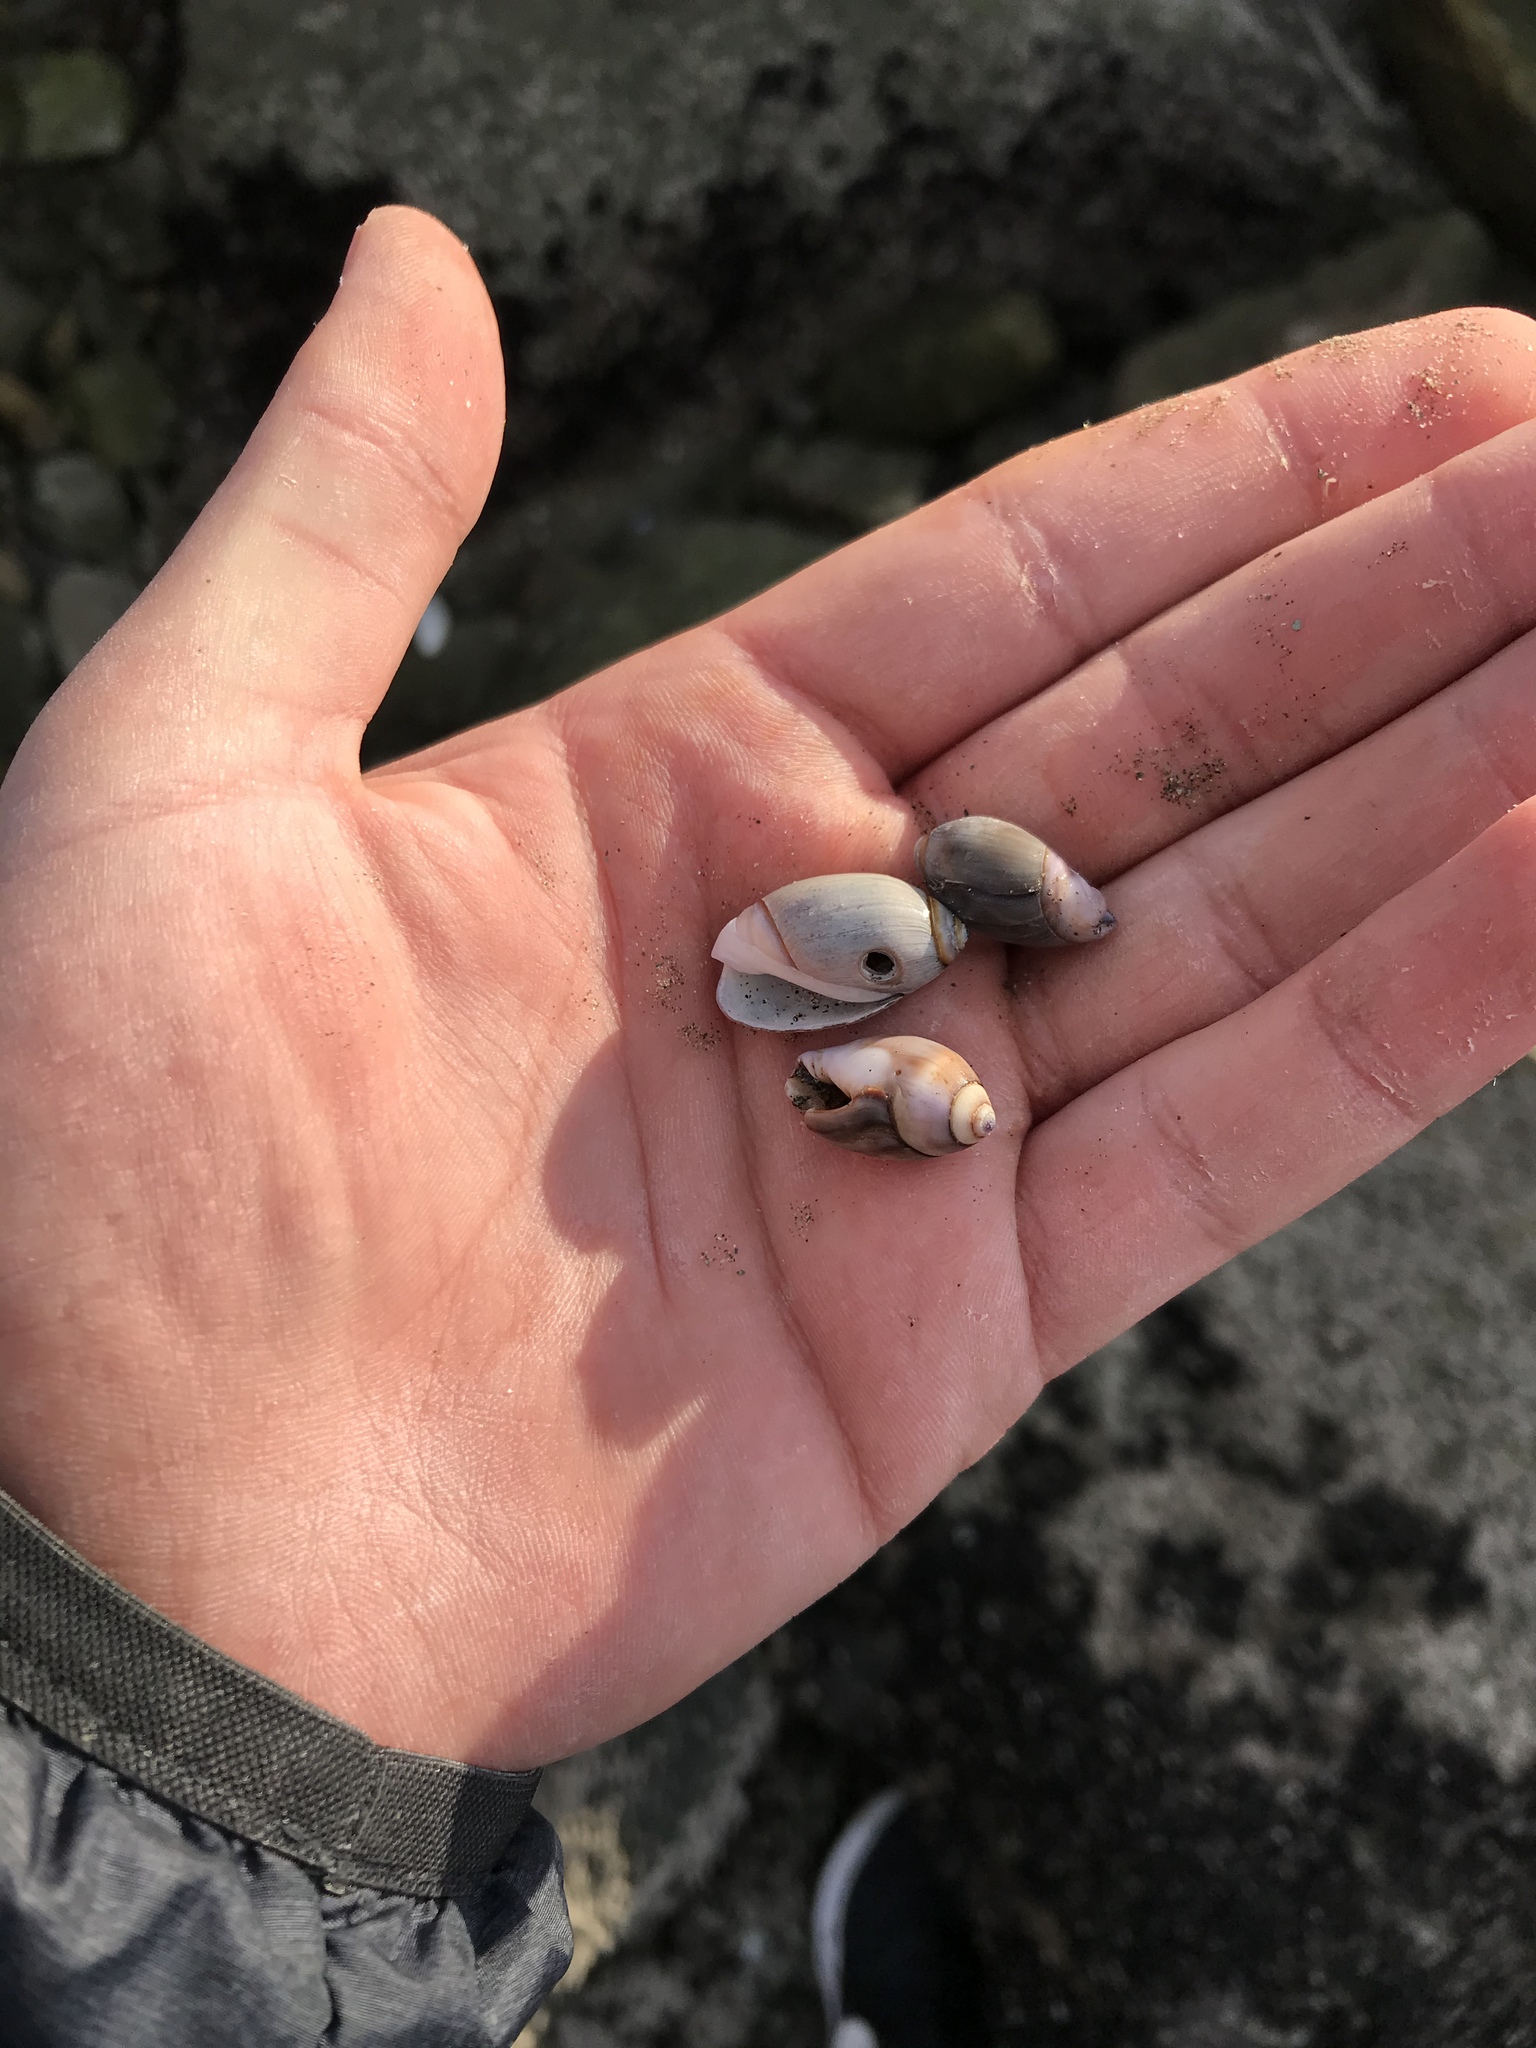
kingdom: Animalia
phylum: Mollusca
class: Gastropoda
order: Neogastropoda
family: Olividae
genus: Callianax
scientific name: Callianax biplicata
